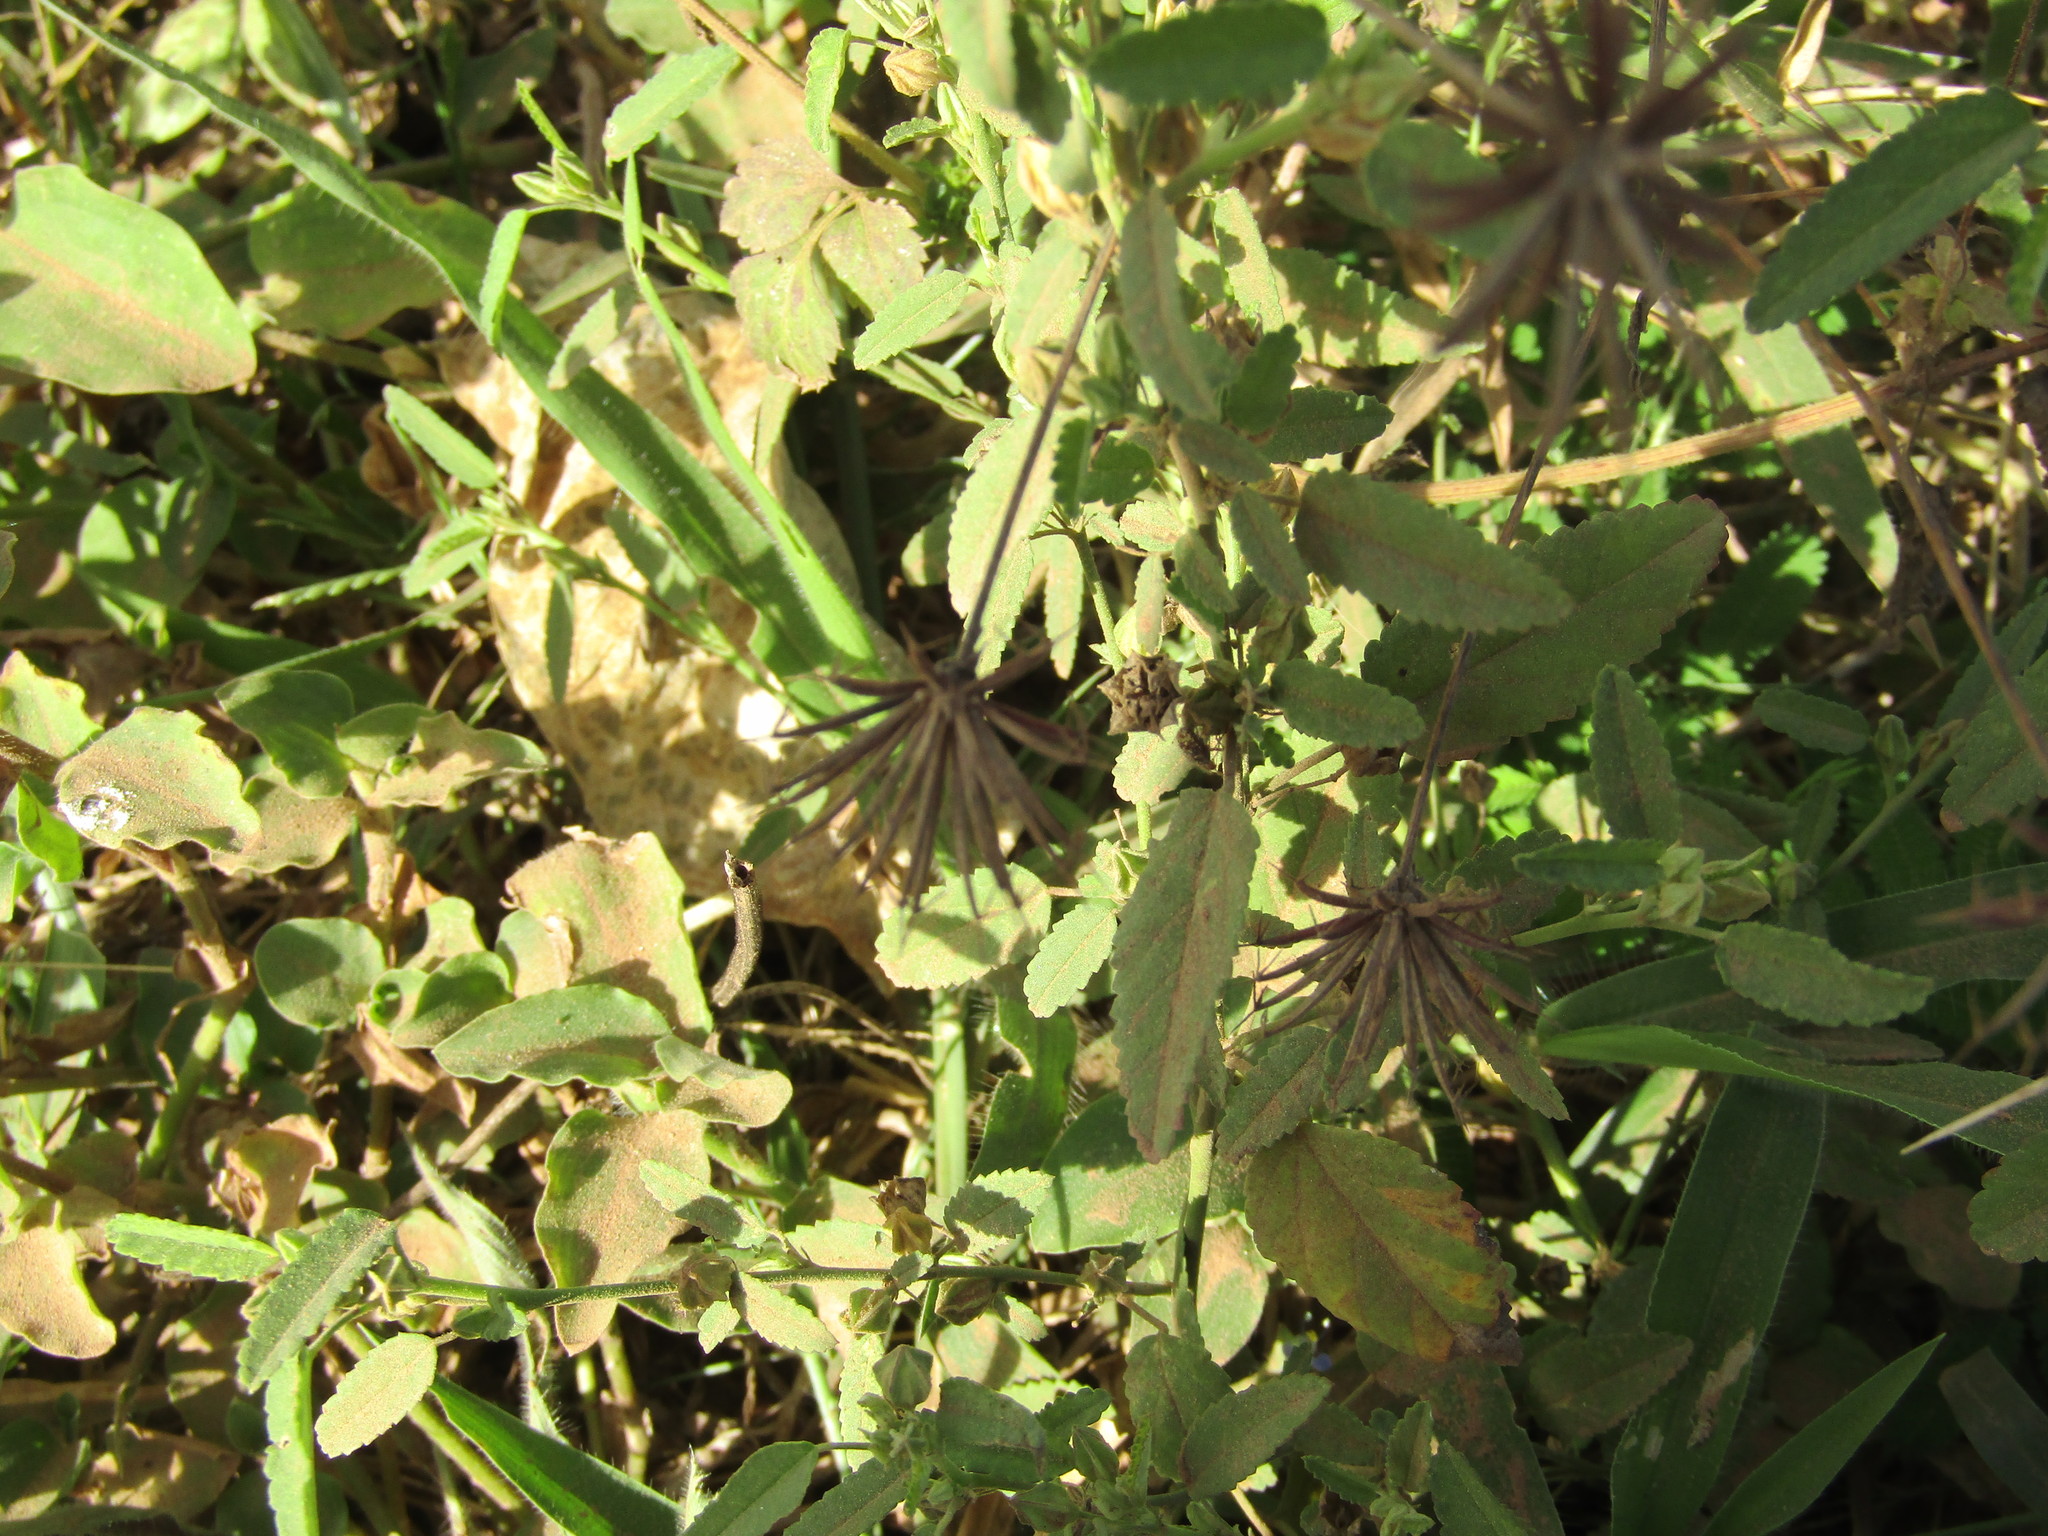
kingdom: Plantae
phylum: Tracheophyta
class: Magnoliopsida
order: Asterales
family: Asteraceae
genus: Bidens
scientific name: Bidens riparia
